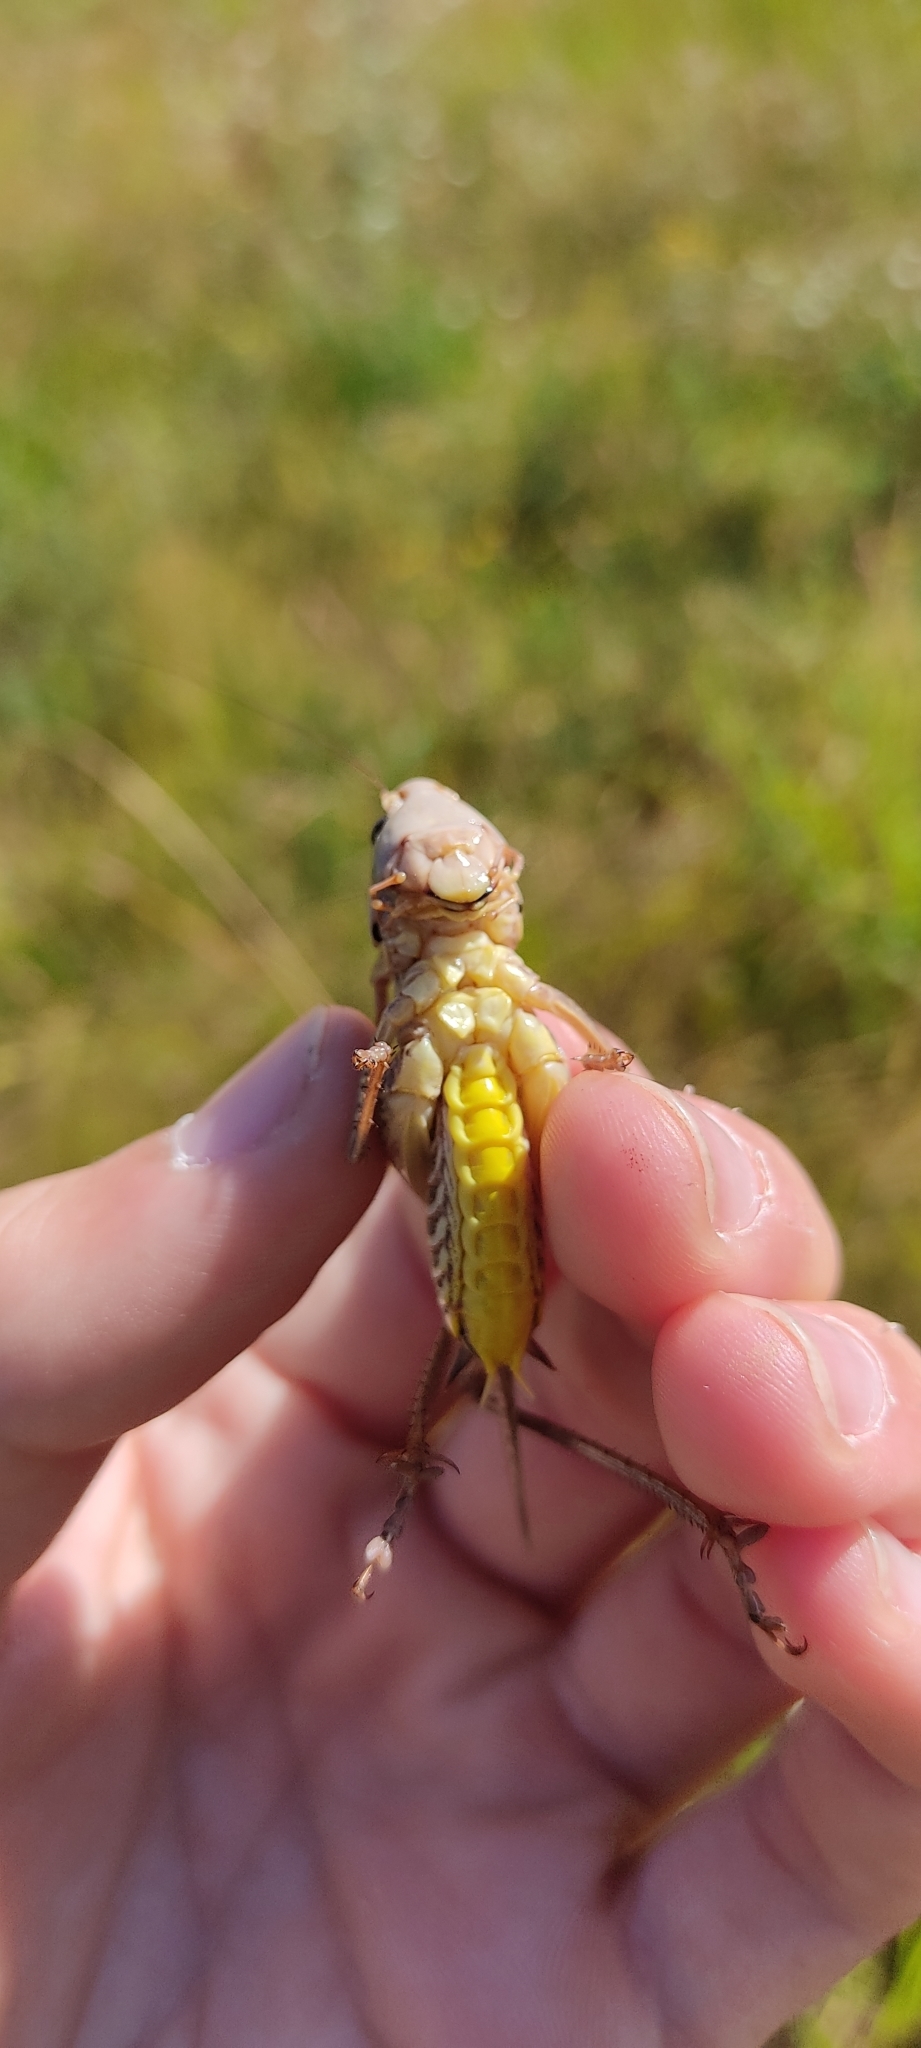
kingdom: Animalia
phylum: Arthropoda
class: Insecta
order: Orthoptera
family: Tettigoniidae
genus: Decticus
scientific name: Decticus albifrons
